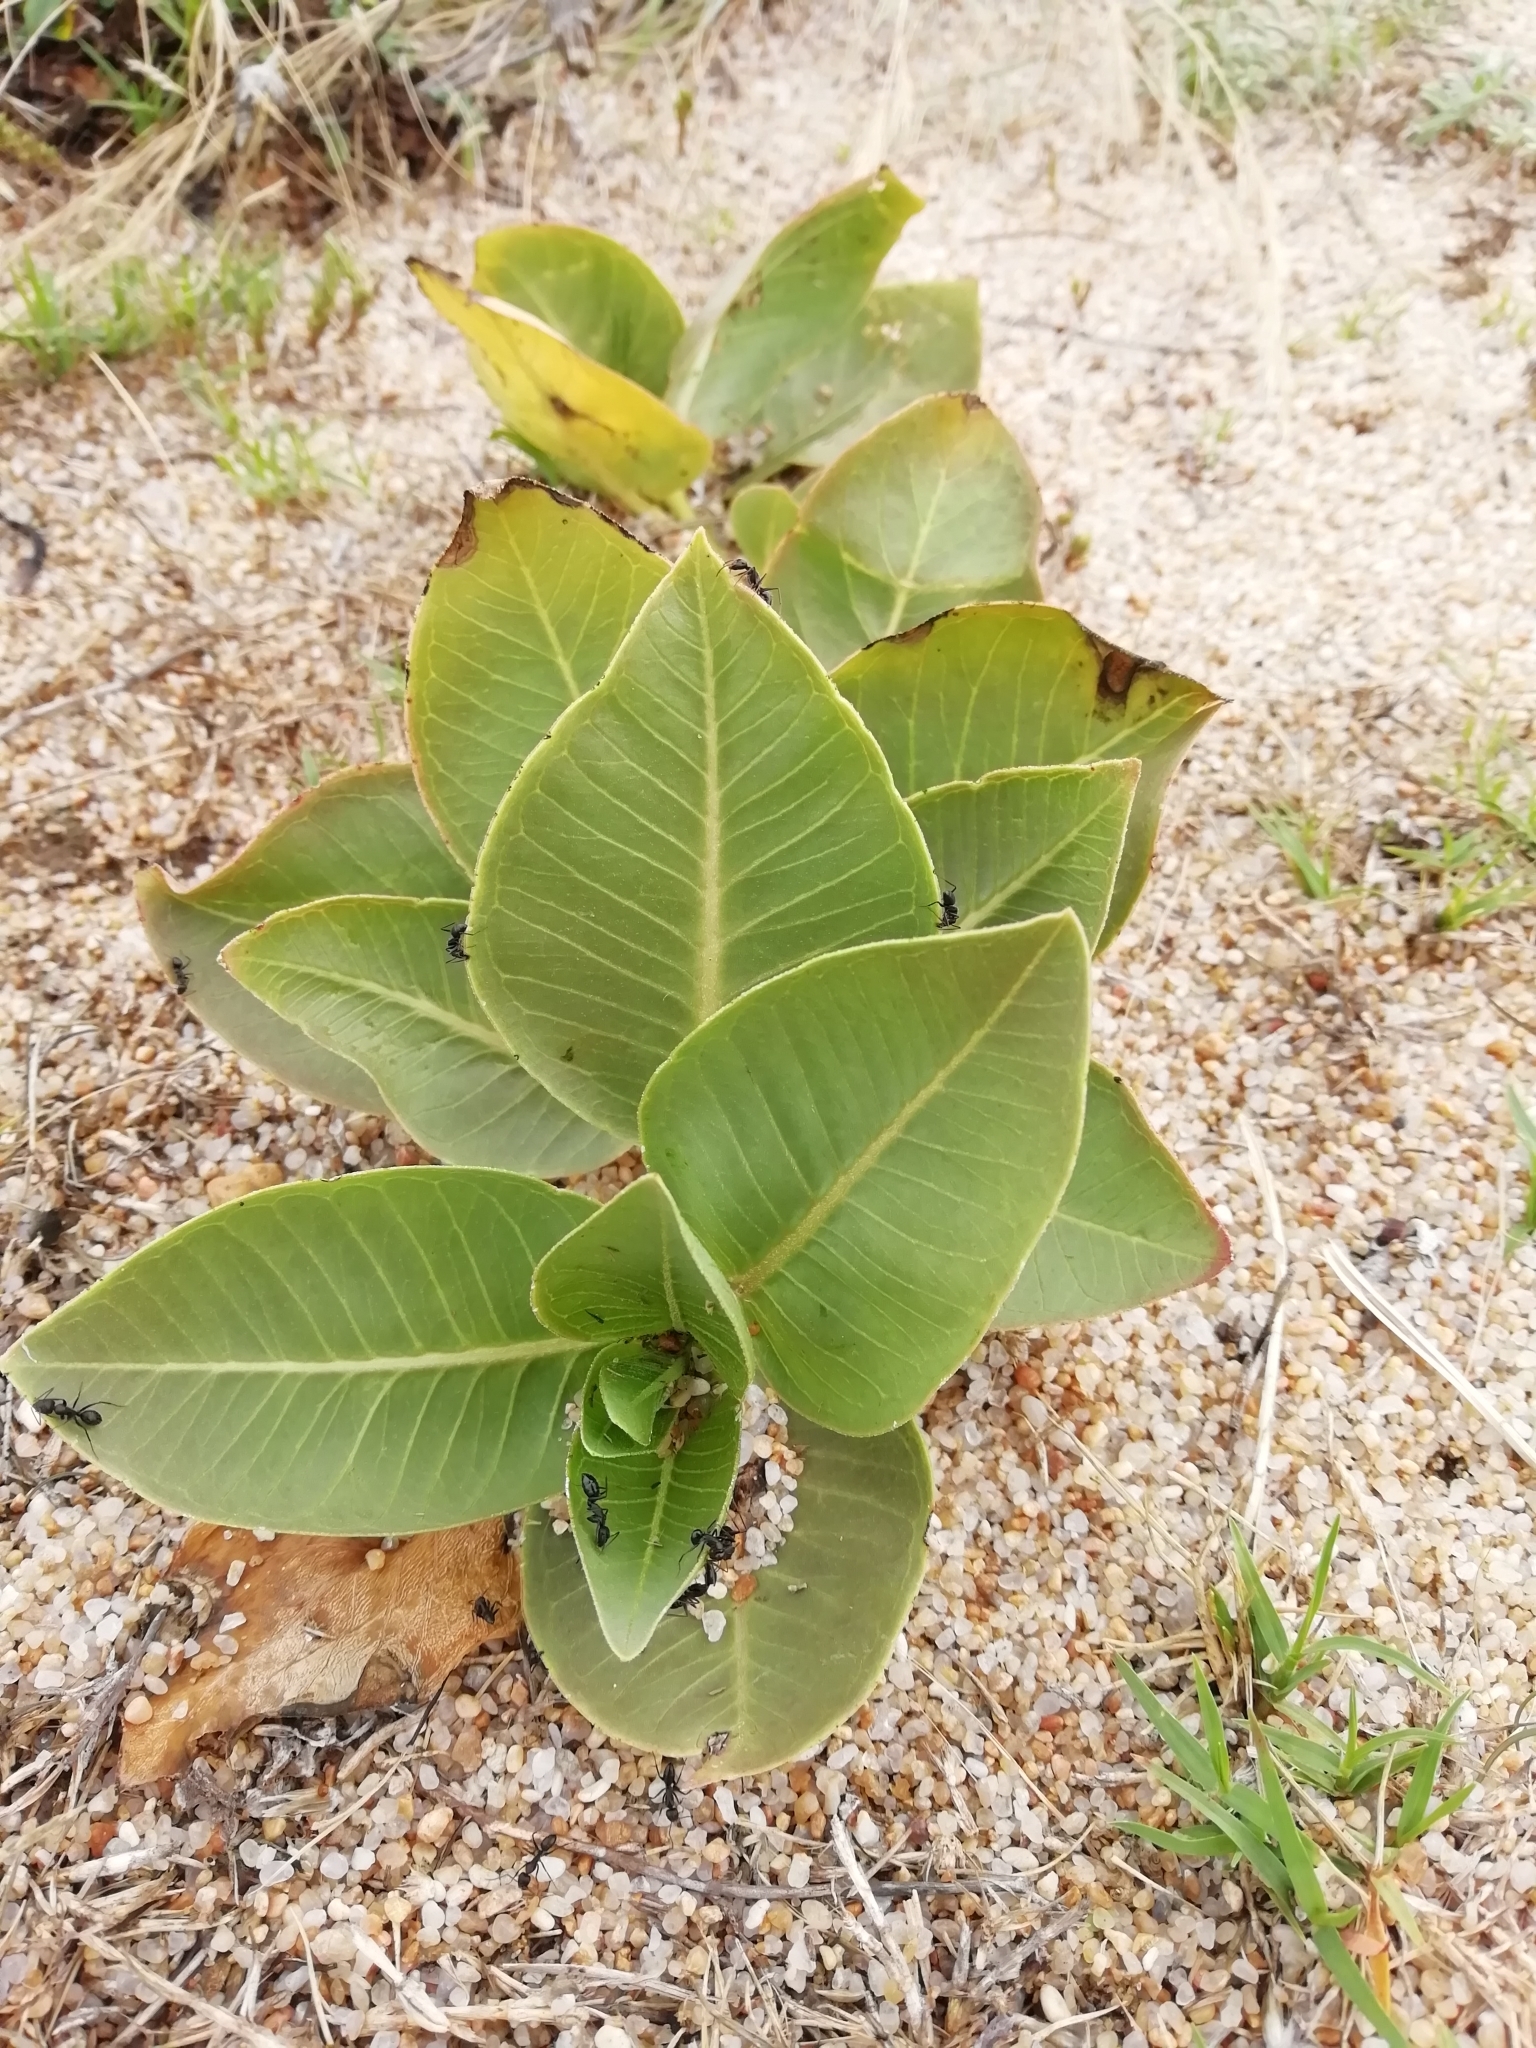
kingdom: Plantae
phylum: Tracheophyta
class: Magnoliopsida
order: Gentianales
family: Apocynaceae
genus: Asclepias
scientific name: Asclepias candida
